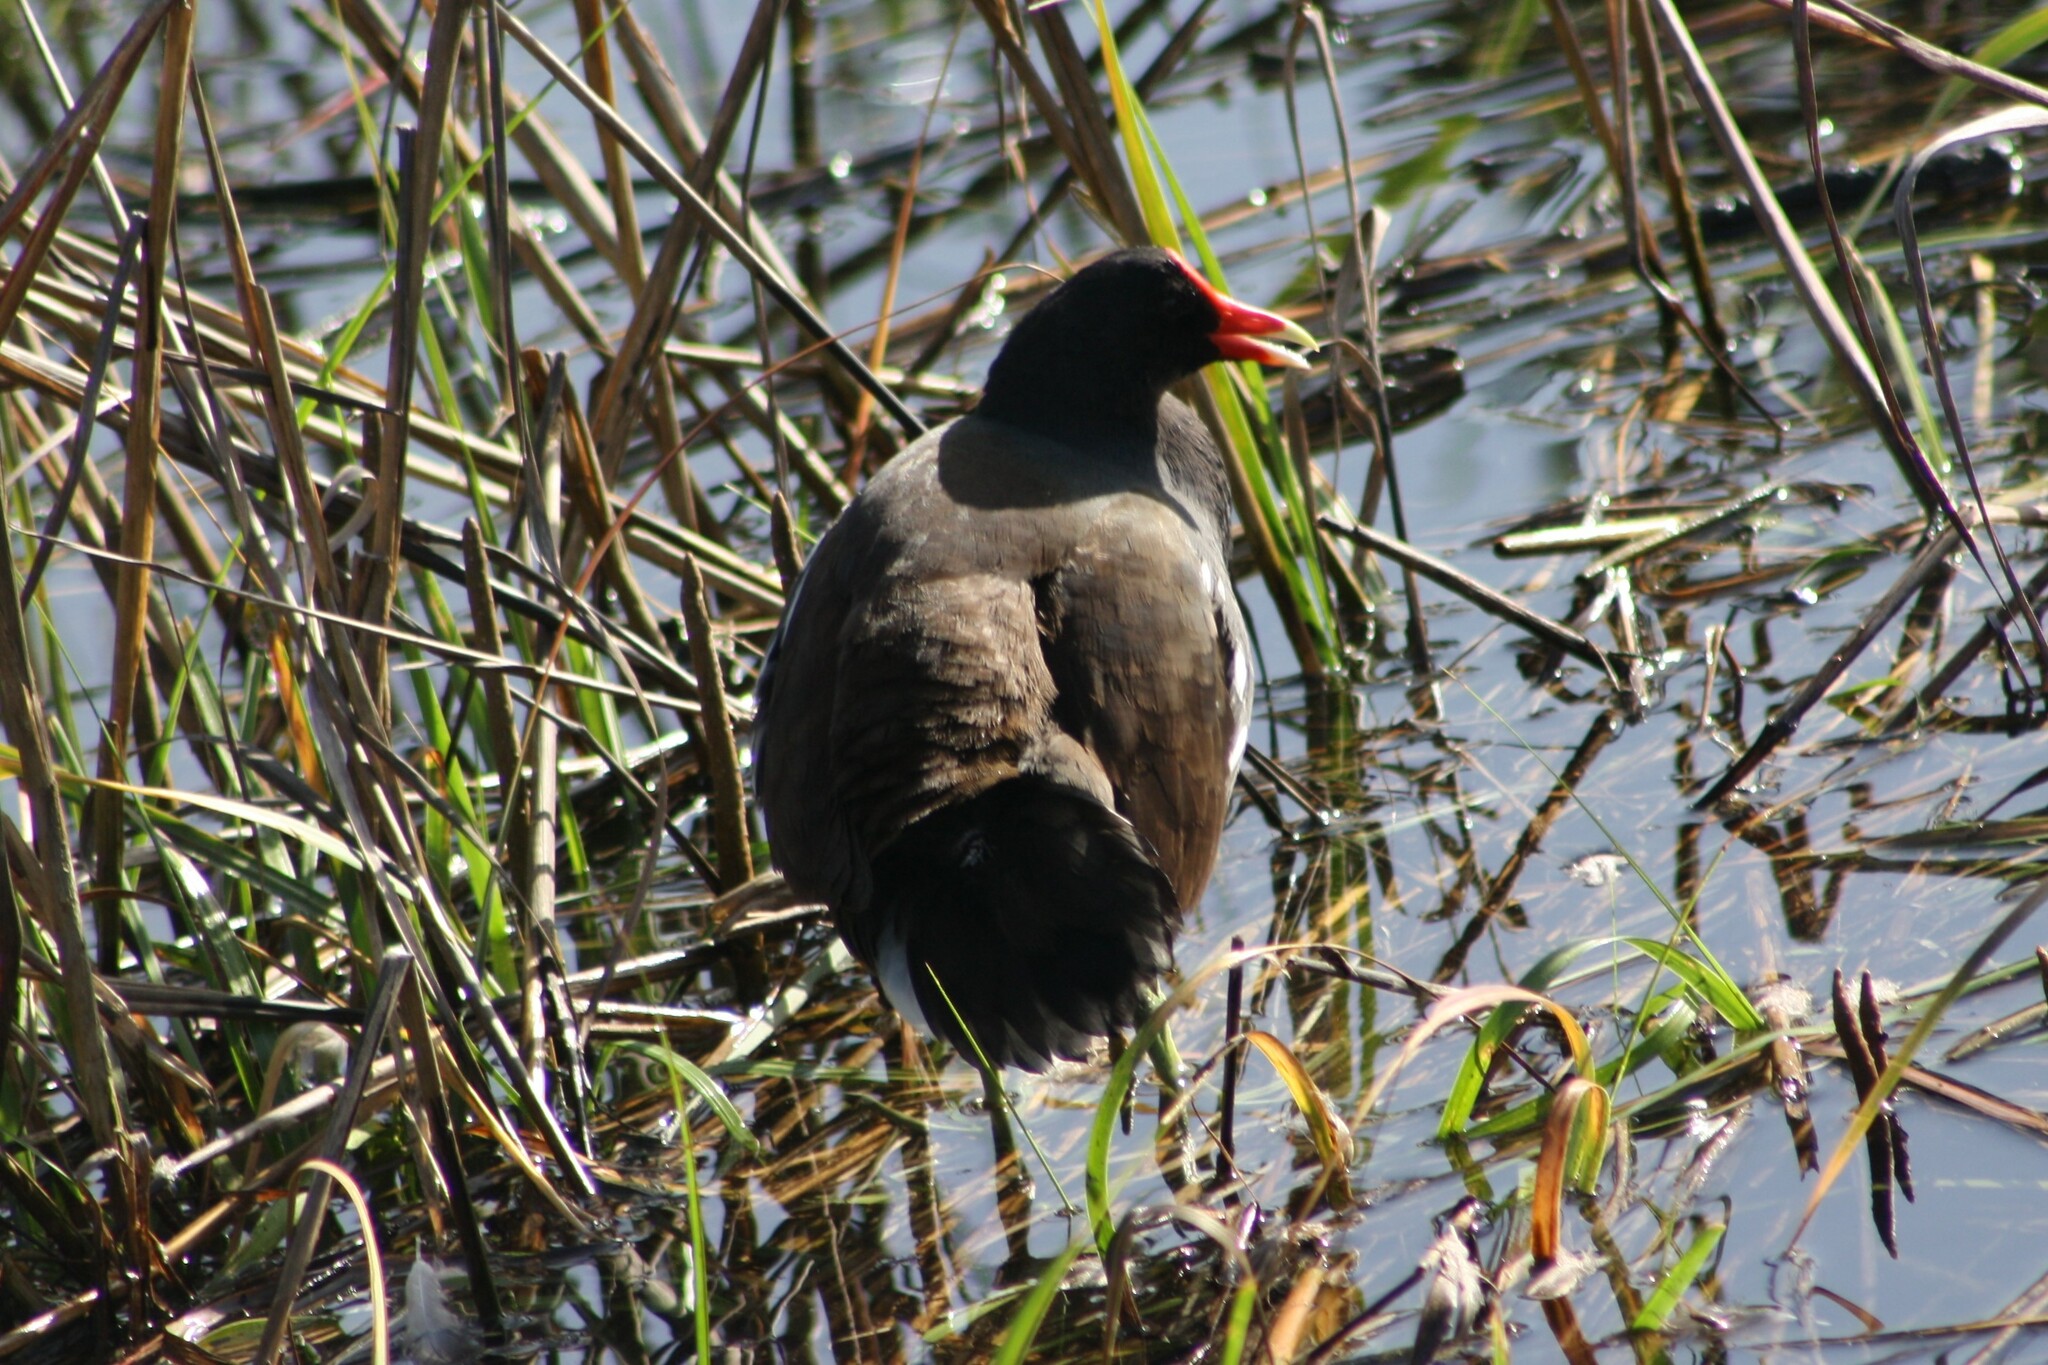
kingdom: Animalia
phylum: Chordata
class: Aves
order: Gruiformes
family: Rallidae
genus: Gallinula
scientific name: Gallinula chloropus
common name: Common moorhen
